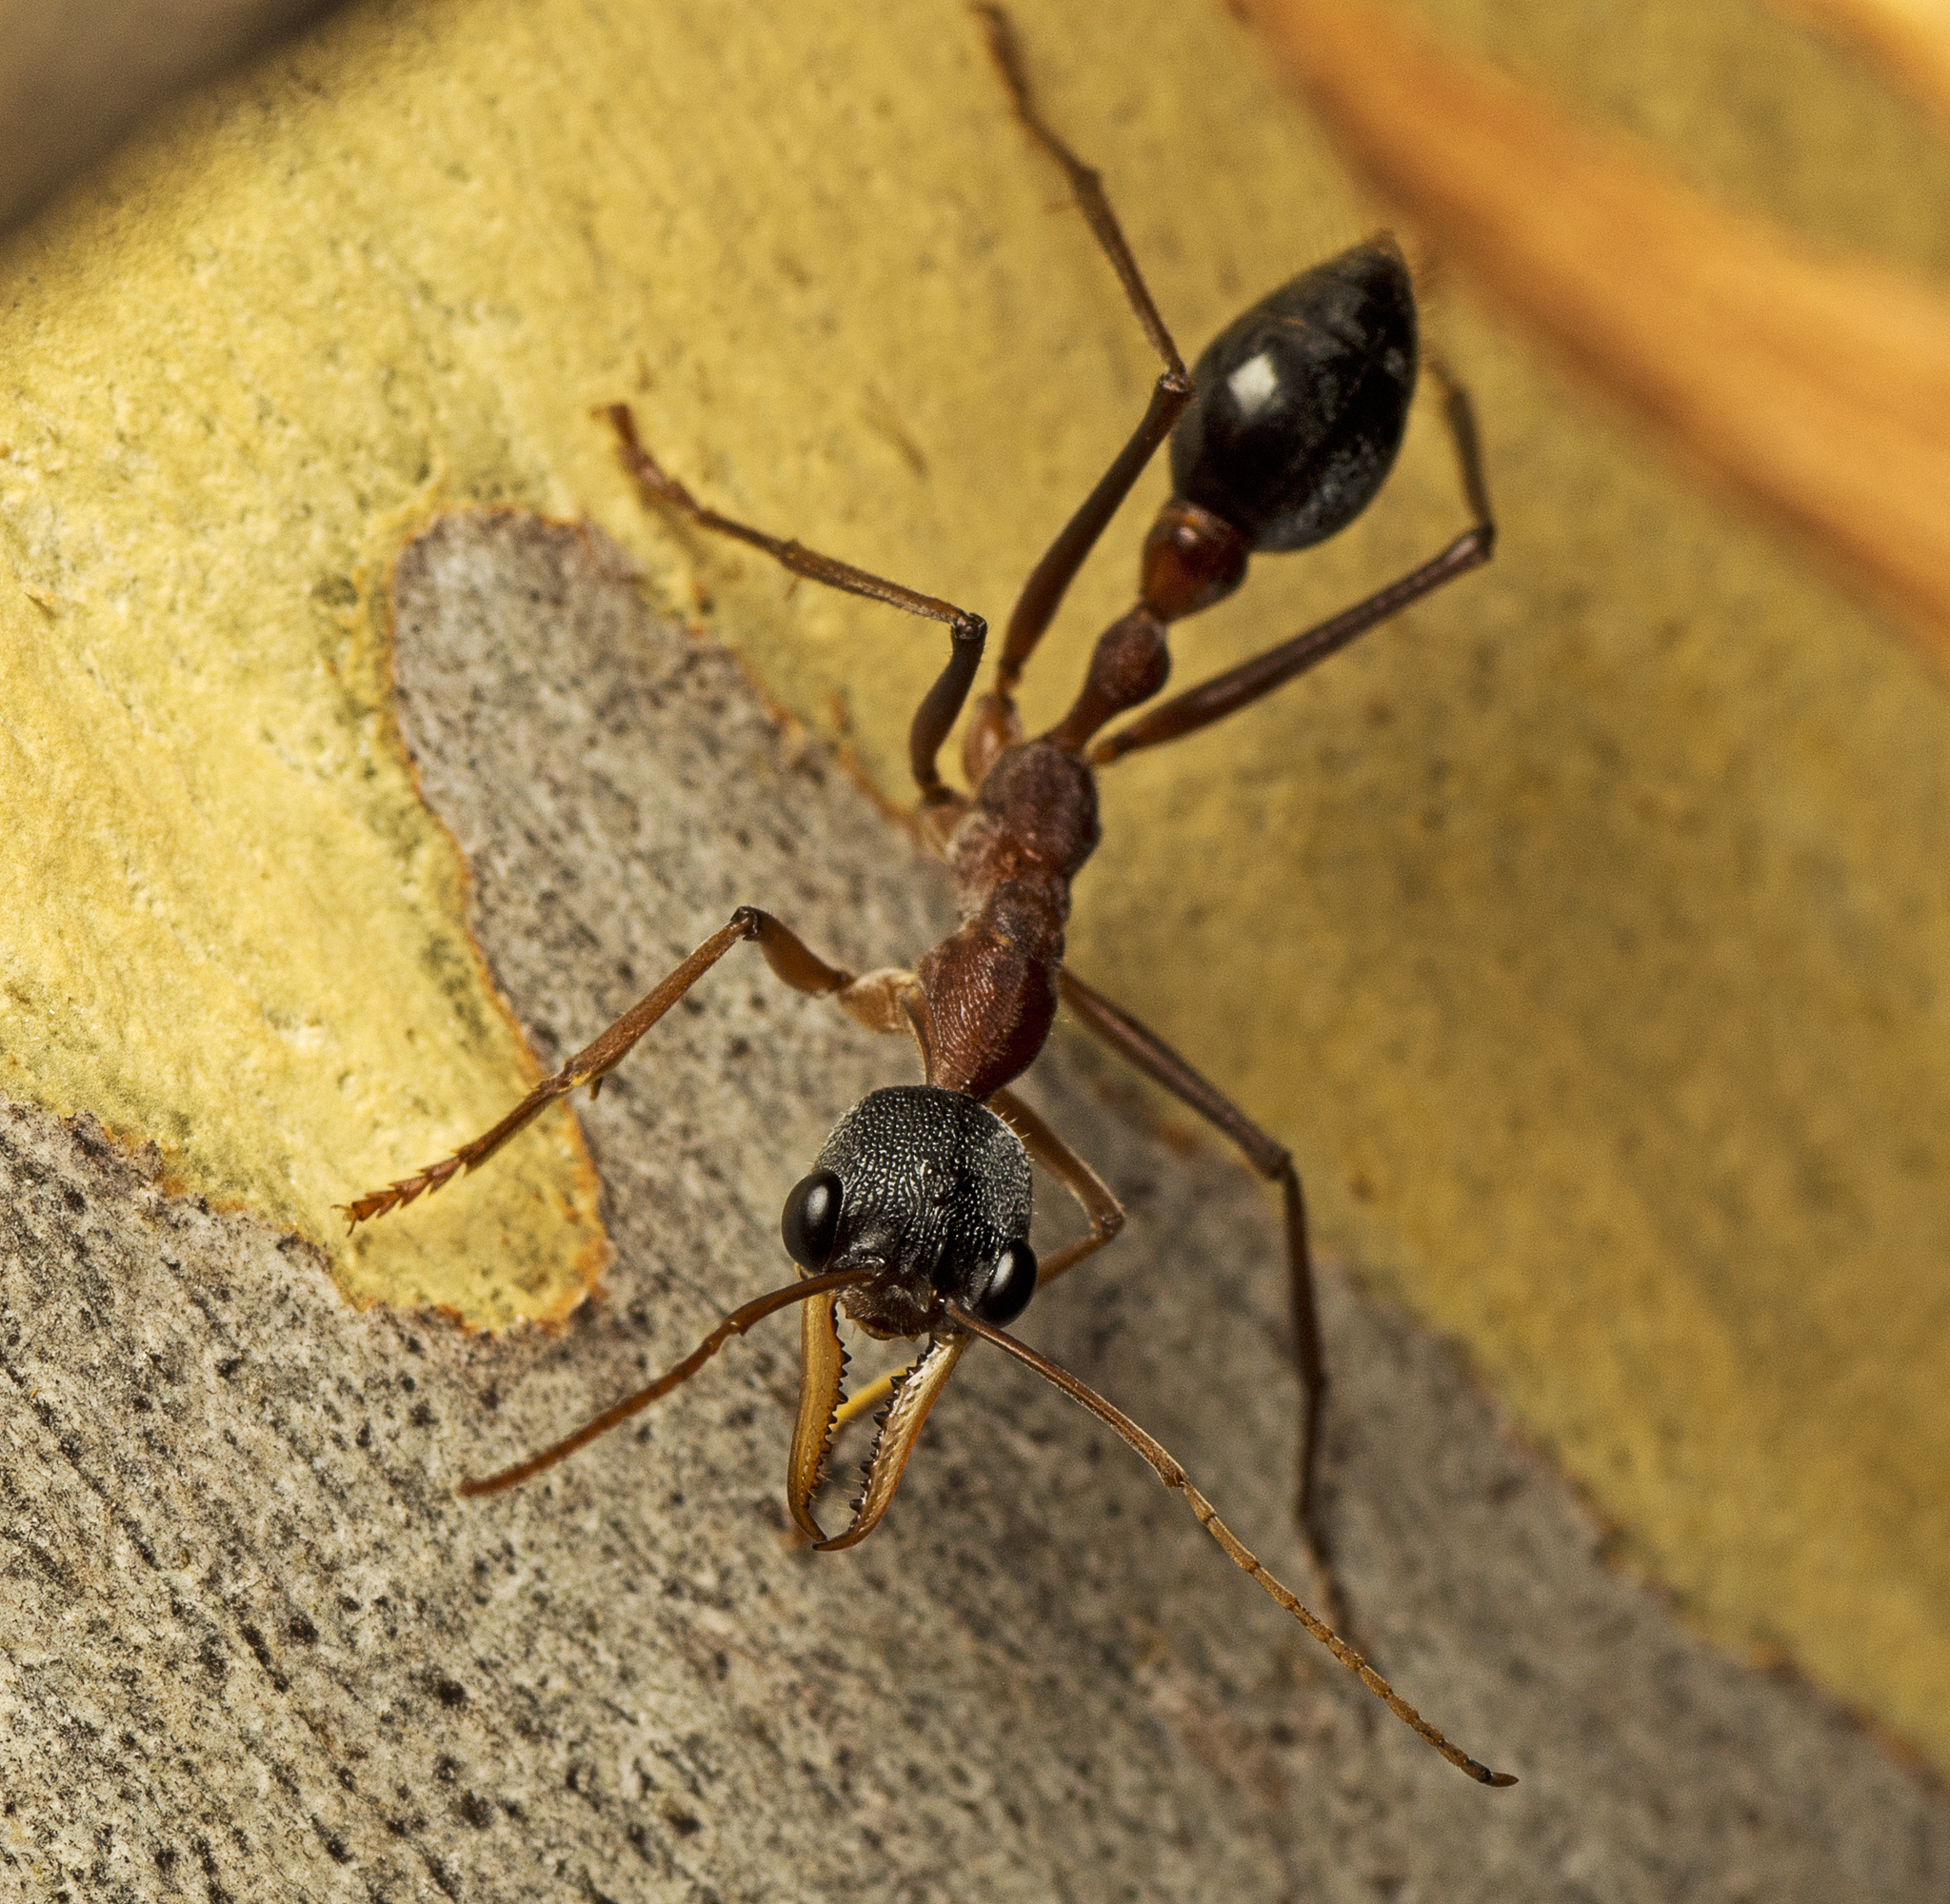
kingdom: Animalia
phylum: Arthropoda
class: Insecta
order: Hymenoptera
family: Formicidae
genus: Myrmecia
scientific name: Myrmecia nigriceps
